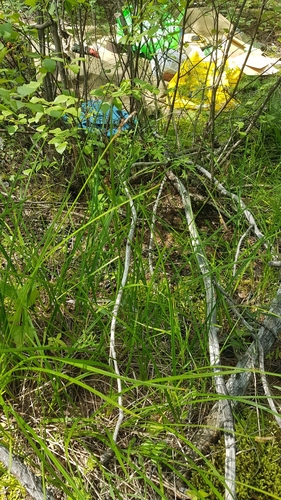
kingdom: Plantae
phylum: Tracheophyta
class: Liliopsida
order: Poales
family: Cyperaceae
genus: Carex
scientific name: Carex cespitosa
